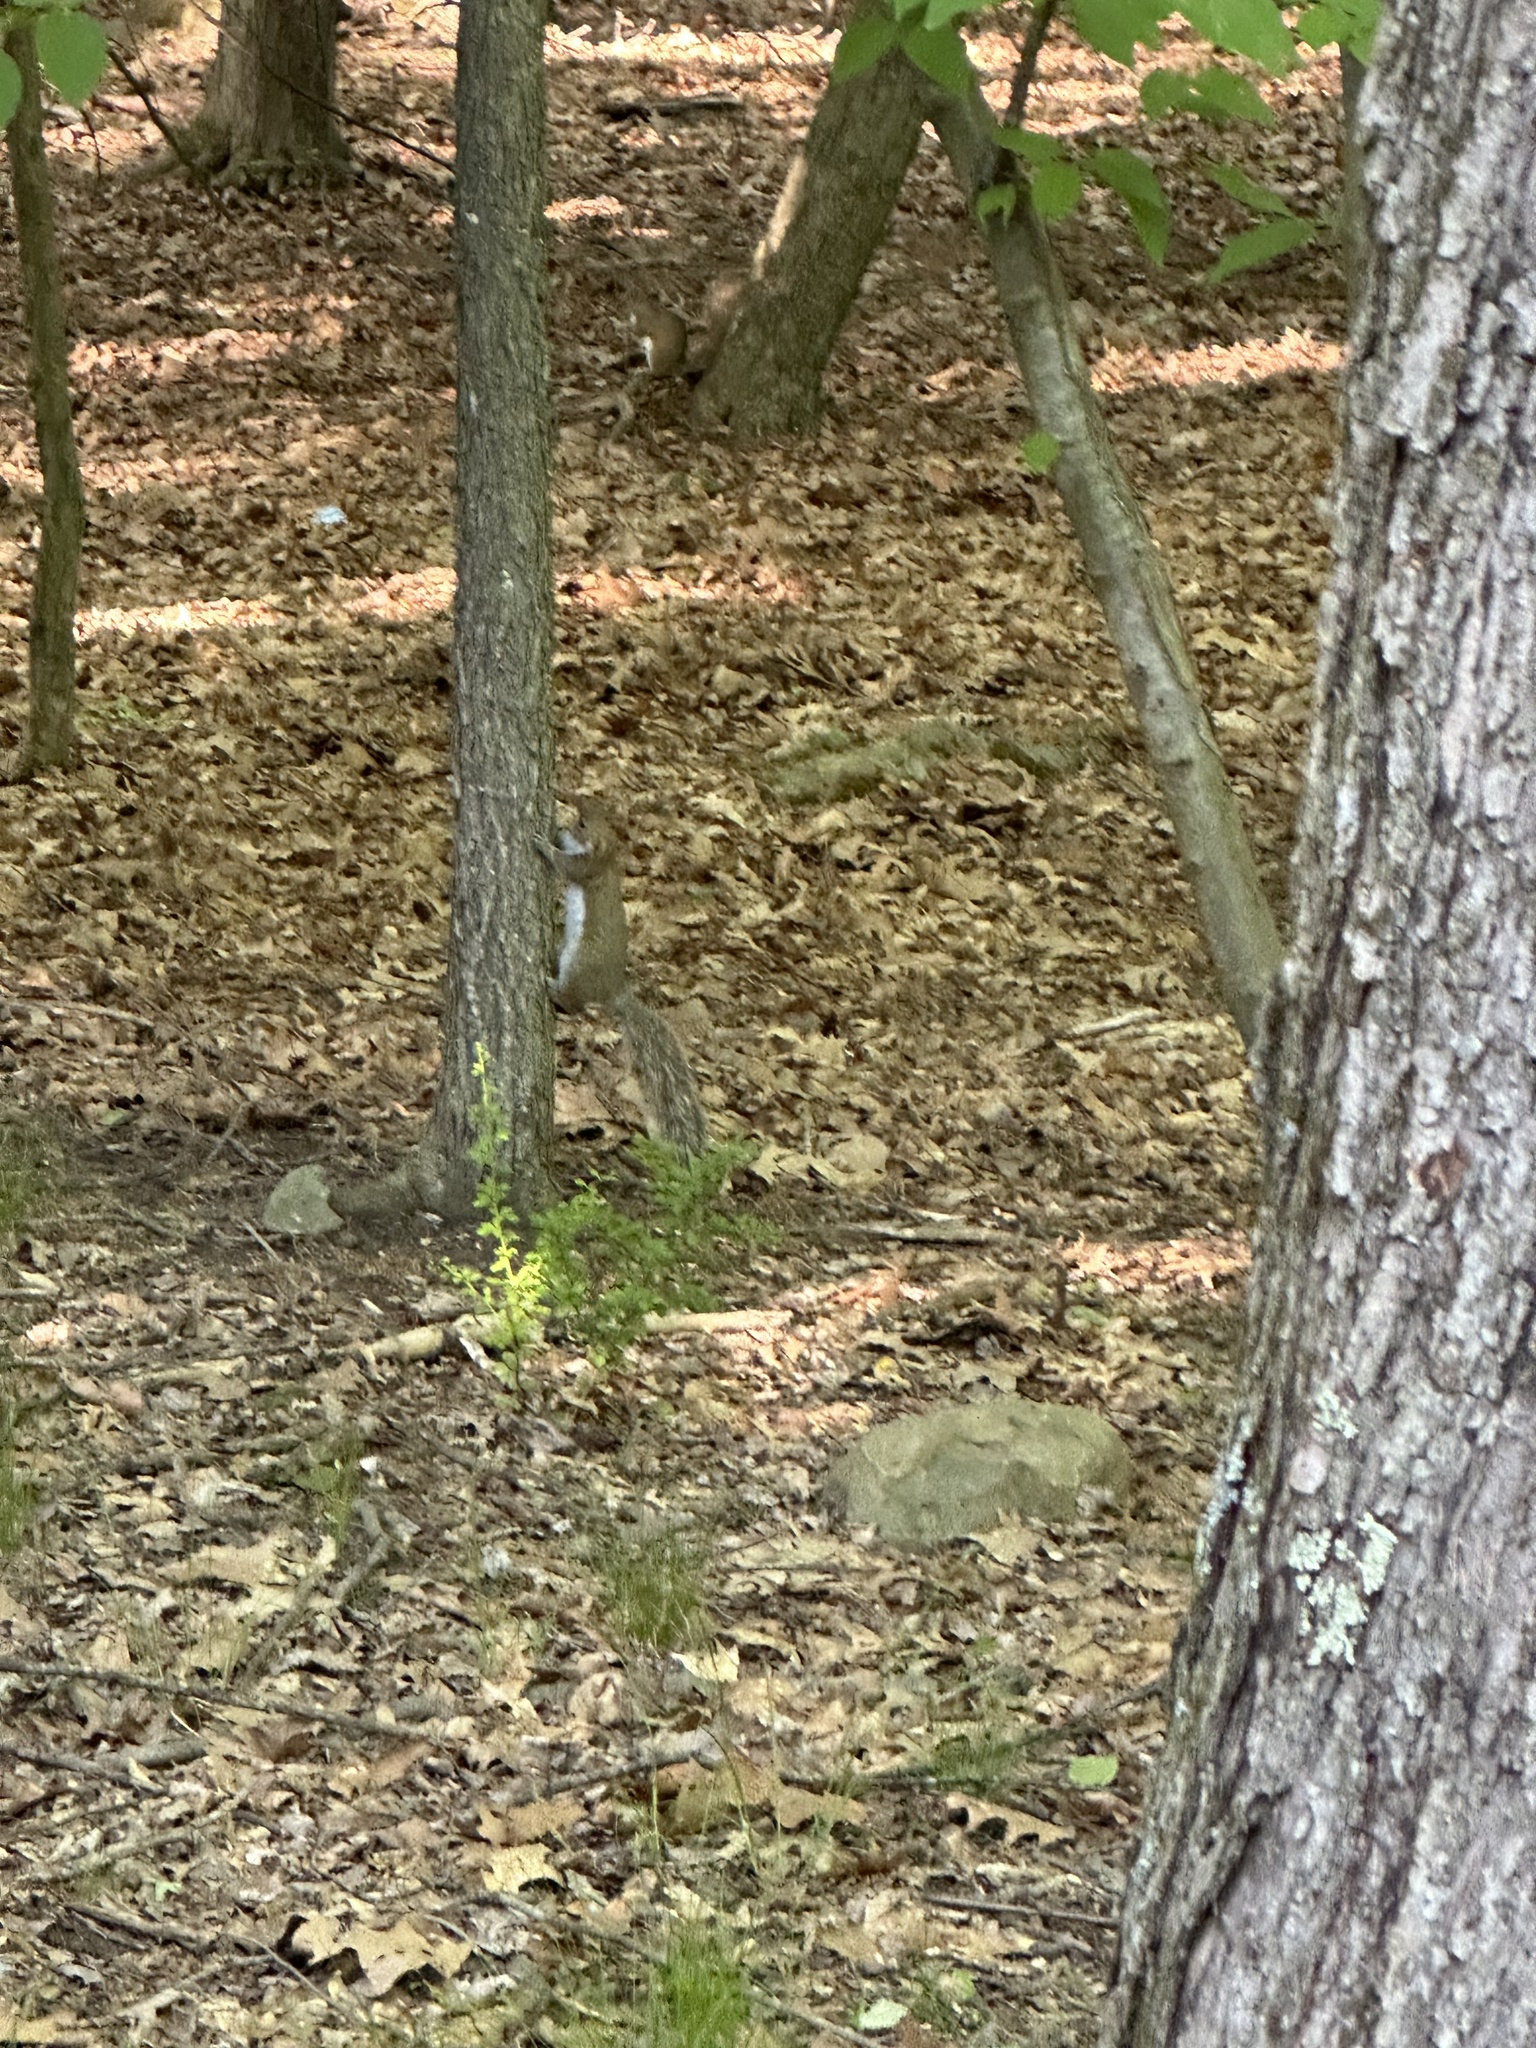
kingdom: Animalia
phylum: Chordata
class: Mammalia
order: Rodentia
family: Sciuridae
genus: Sciurus
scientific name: Sciurus carolinensis
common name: Eastern gray squirrel
